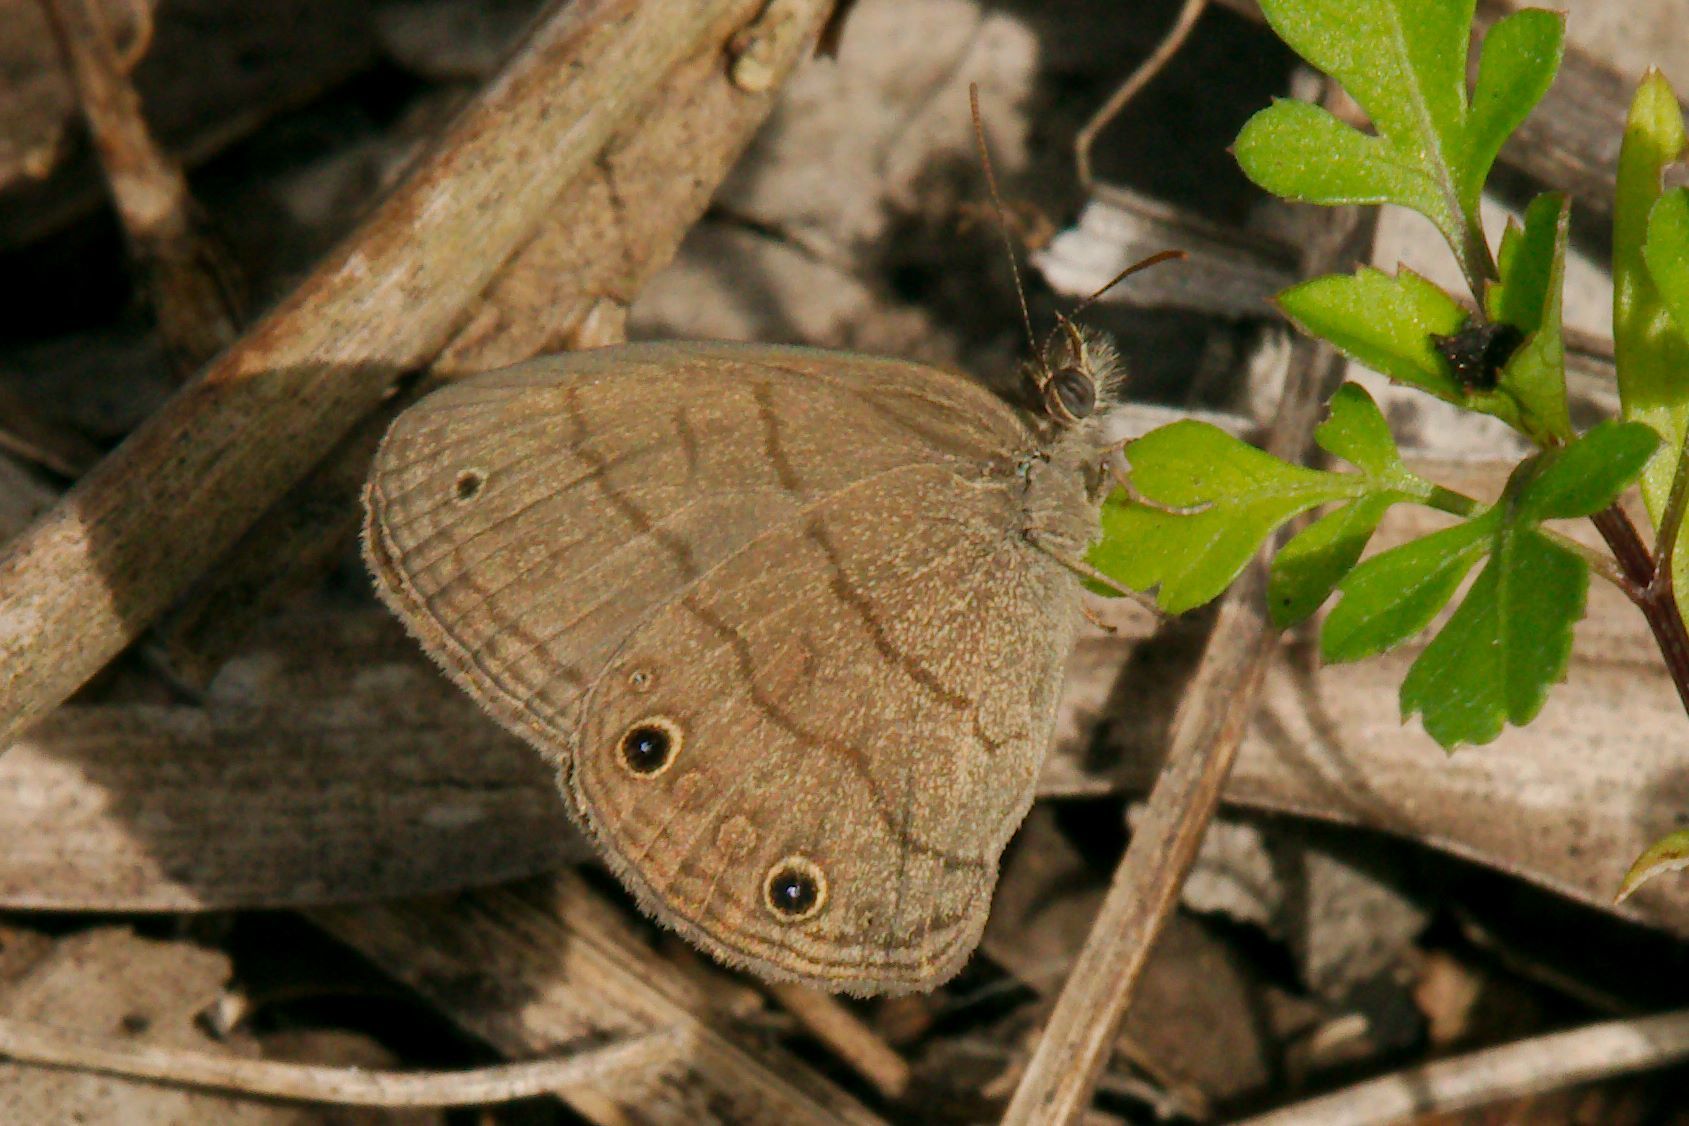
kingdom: Animalia
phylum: Arthropoda
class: Insecta
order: Lepidoptera
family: Nymphalidae
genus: Hermeuptychia
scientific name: Hermeuptychia hermes
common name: Hermes satyr
